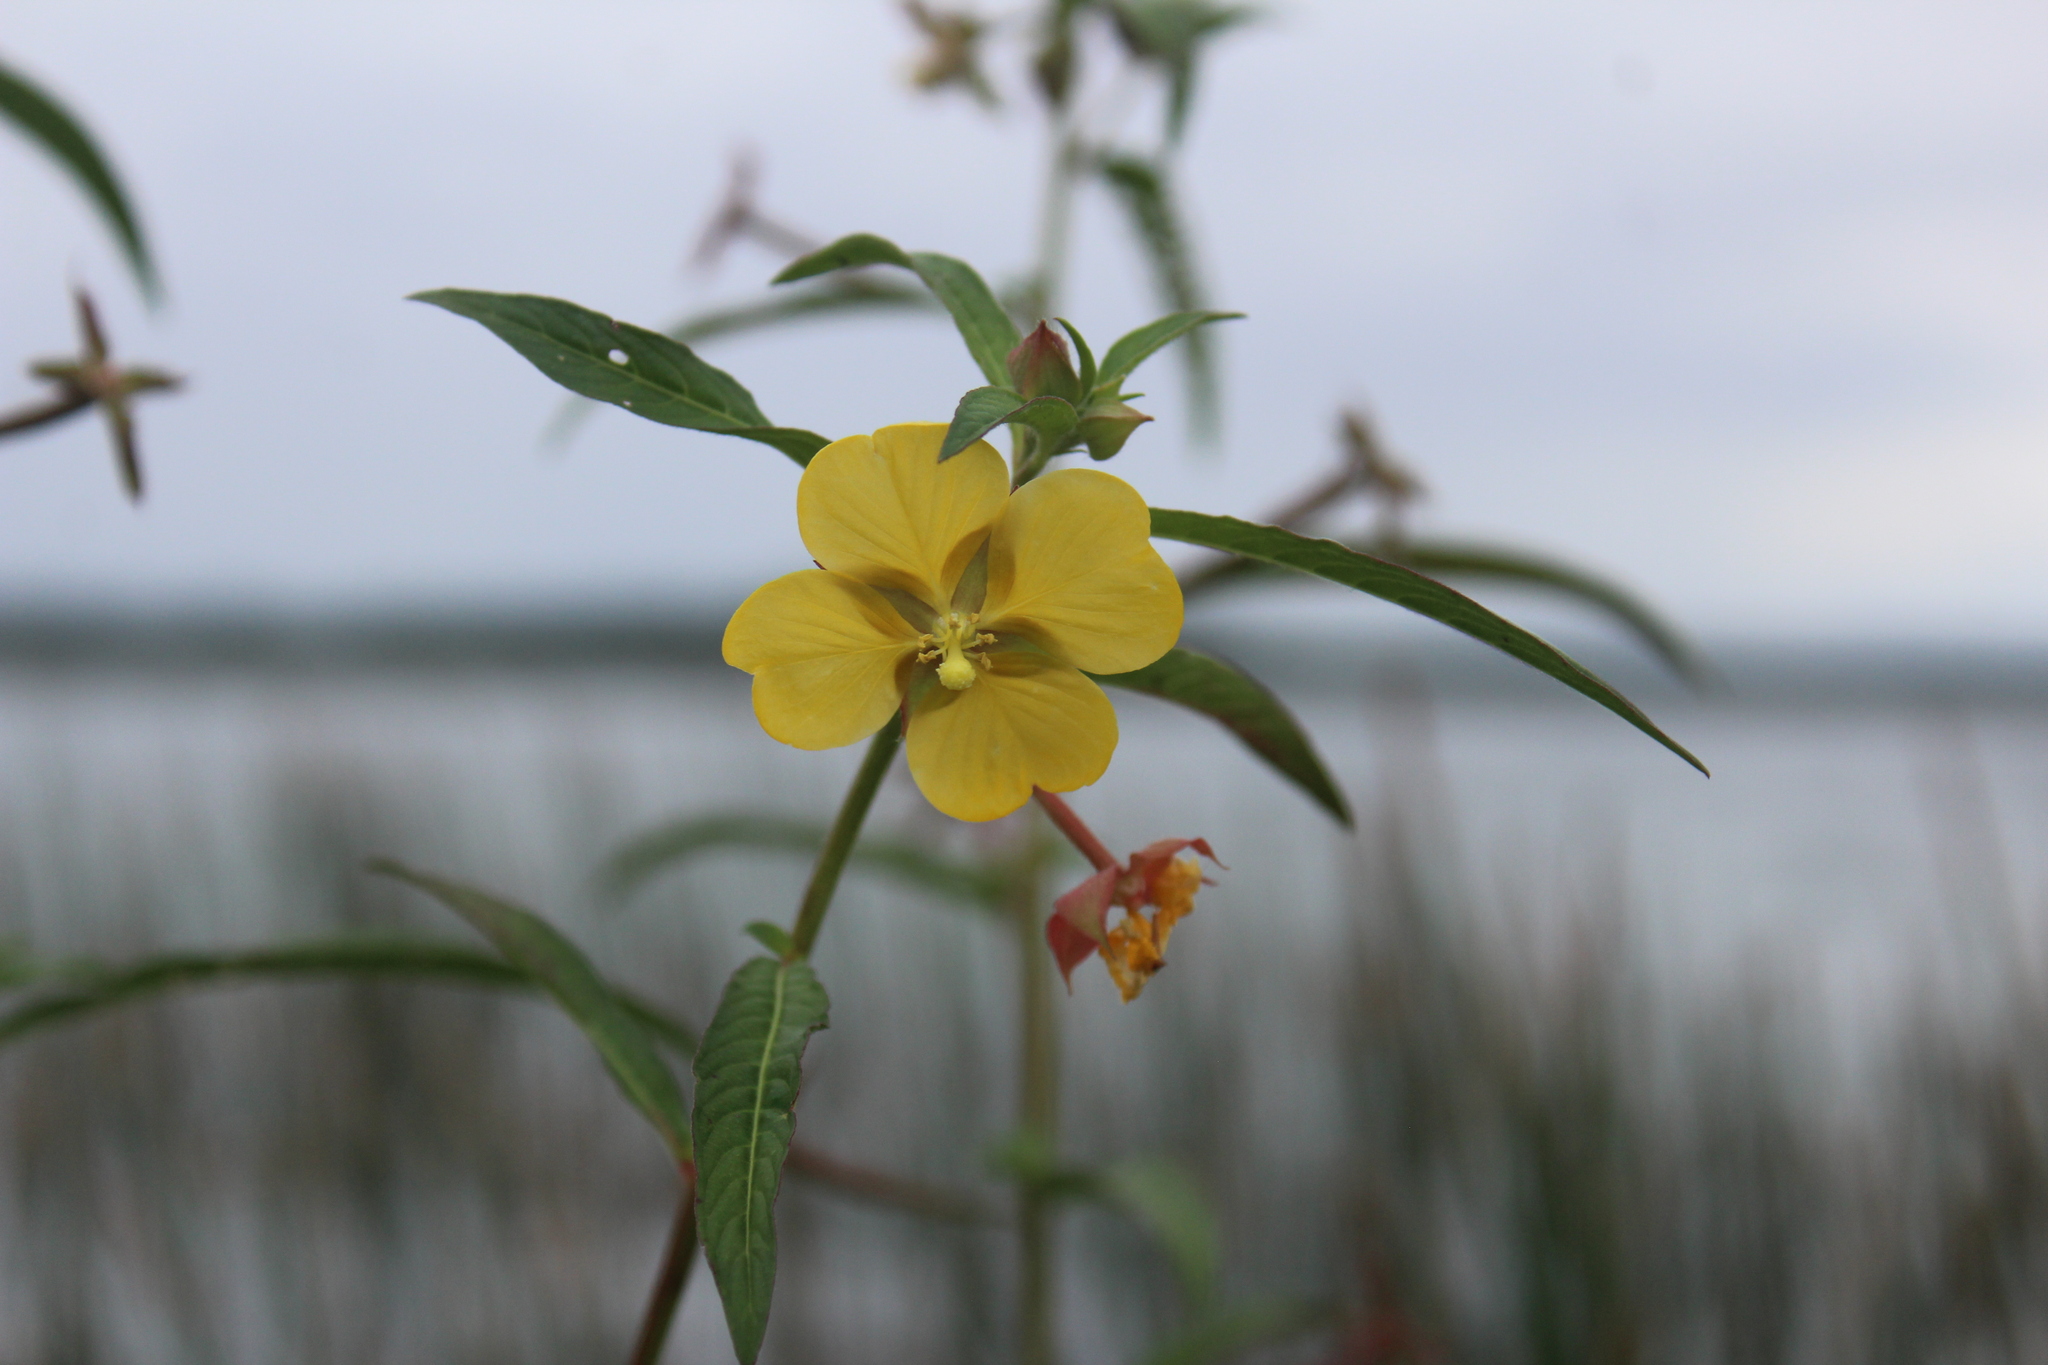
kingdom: Plantae
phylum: Tracheophyta
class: Magnoliopsida
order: Myrtales
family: Onagraceae
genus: Ludwigia
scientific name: Ludwigia octovalvis
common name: Water-primrose
